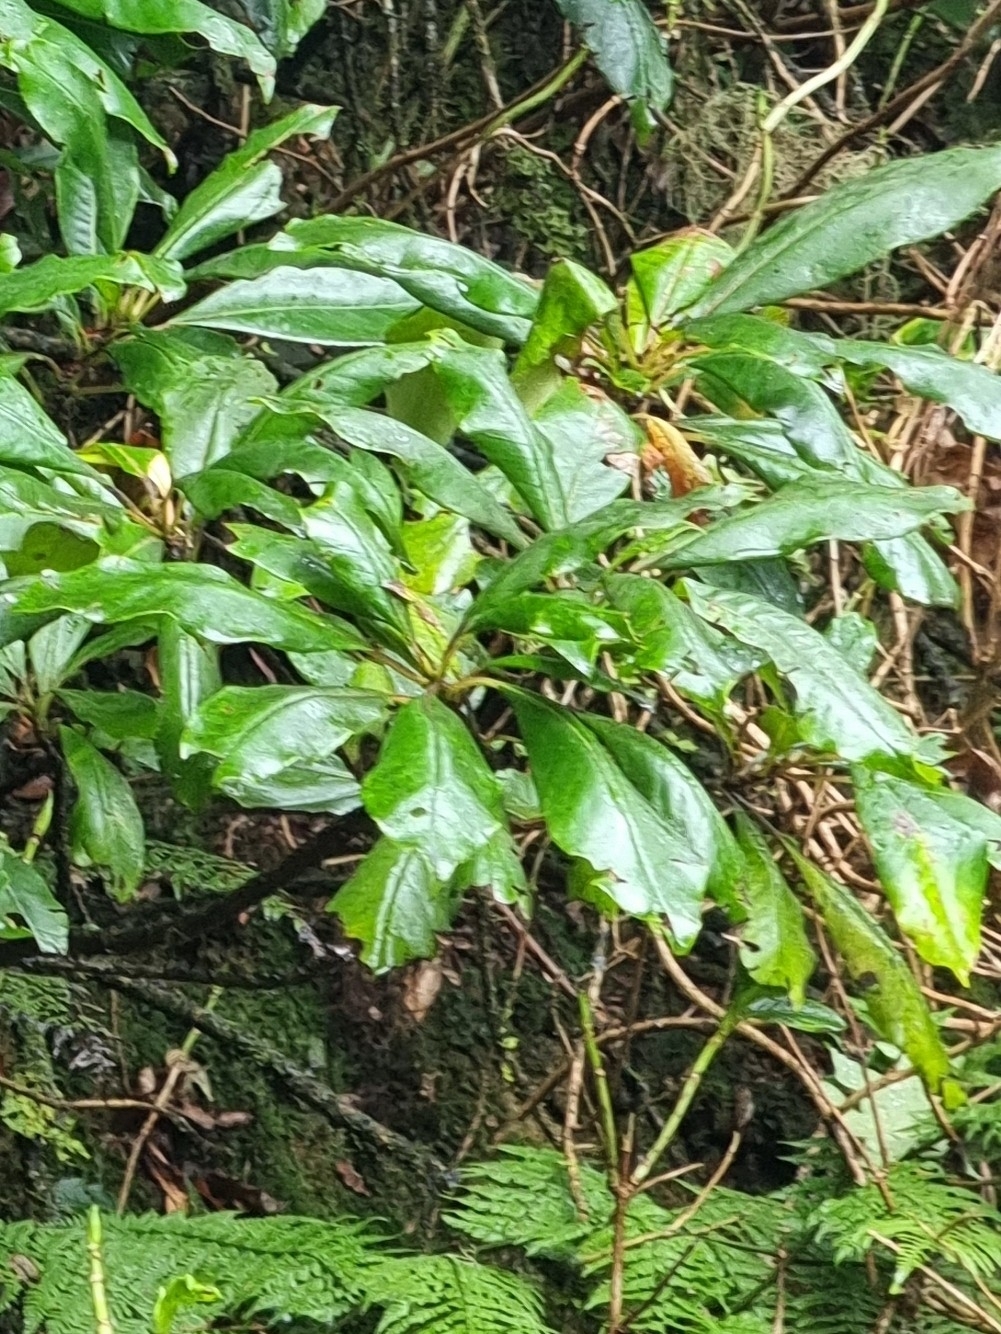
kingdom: Plantae
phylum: Tracheophyta
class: Magnoliopsida
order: Ericales
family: Clethraceae
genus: Clethra
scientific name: Clethra arborea
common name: Lily-of-the-valley-tree
